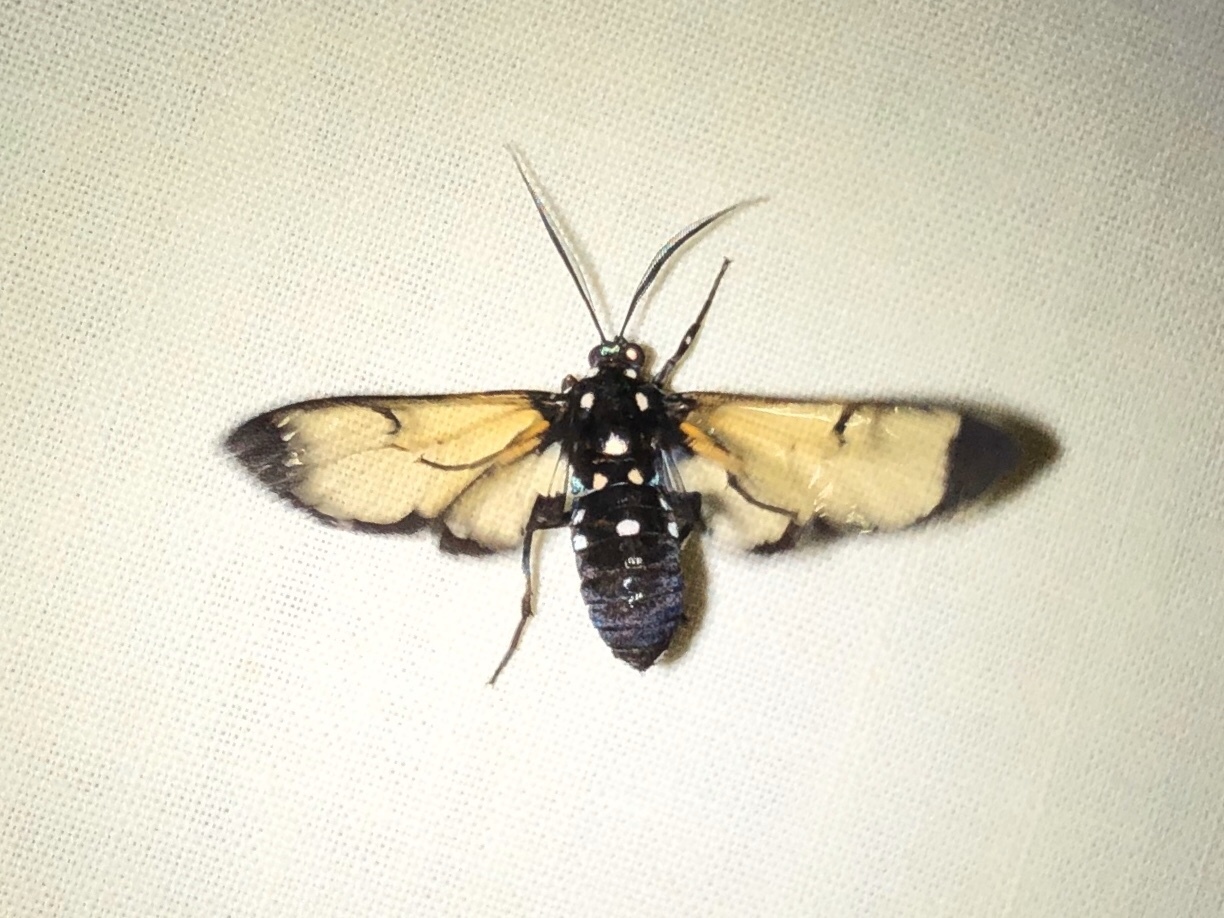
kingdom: Animalia
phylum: Arthropoda
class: Insecta
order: Lepidoptera
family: Erebidae
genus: Homoeocera
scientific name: Homoeocera stictosoma
